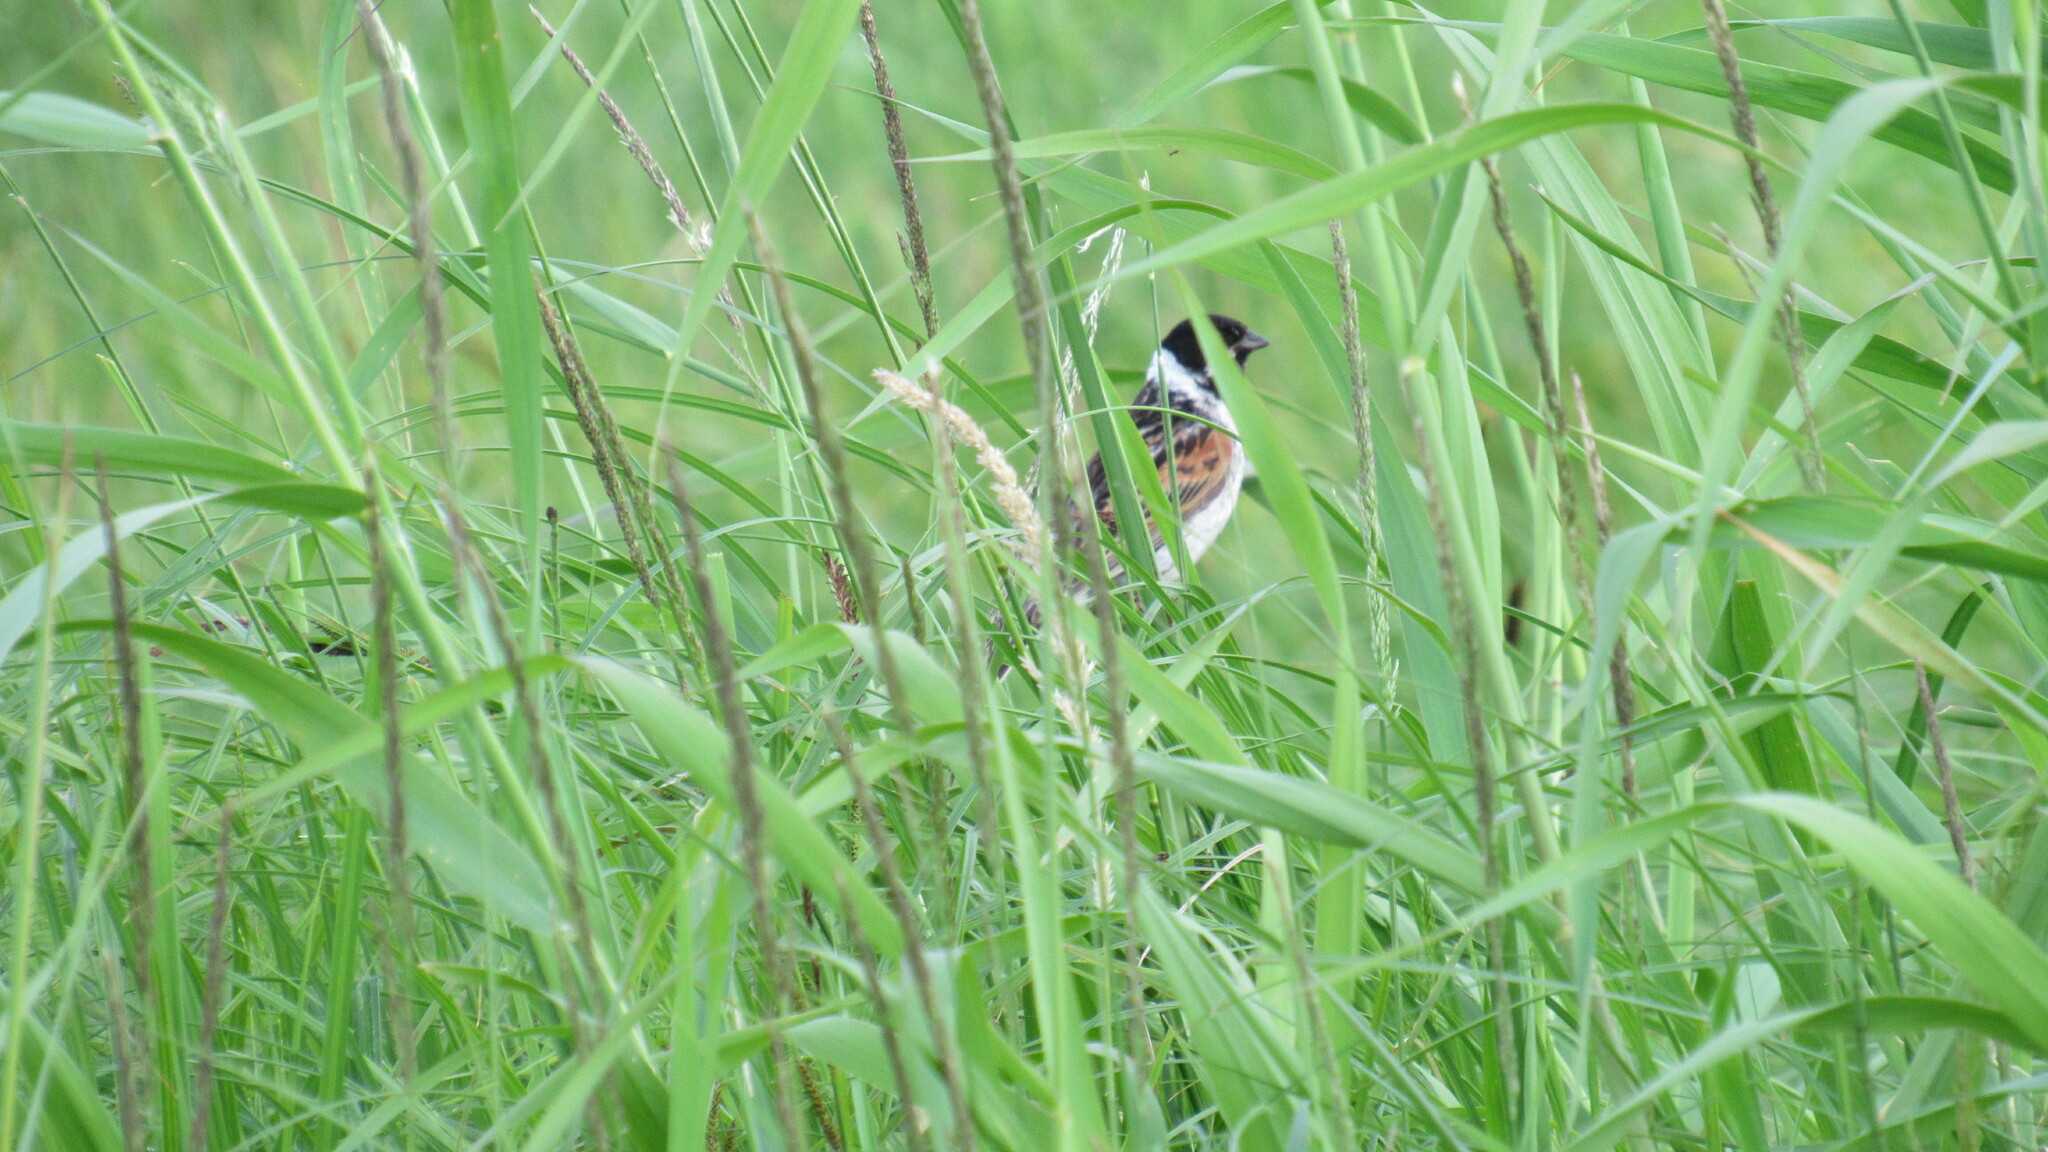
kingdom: Animalia
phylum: Chordata
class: Aves
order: Passeriformes
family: Emberizidae
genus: Emberiza
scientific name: Emberiza schoeniclus
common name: Reed bunting
